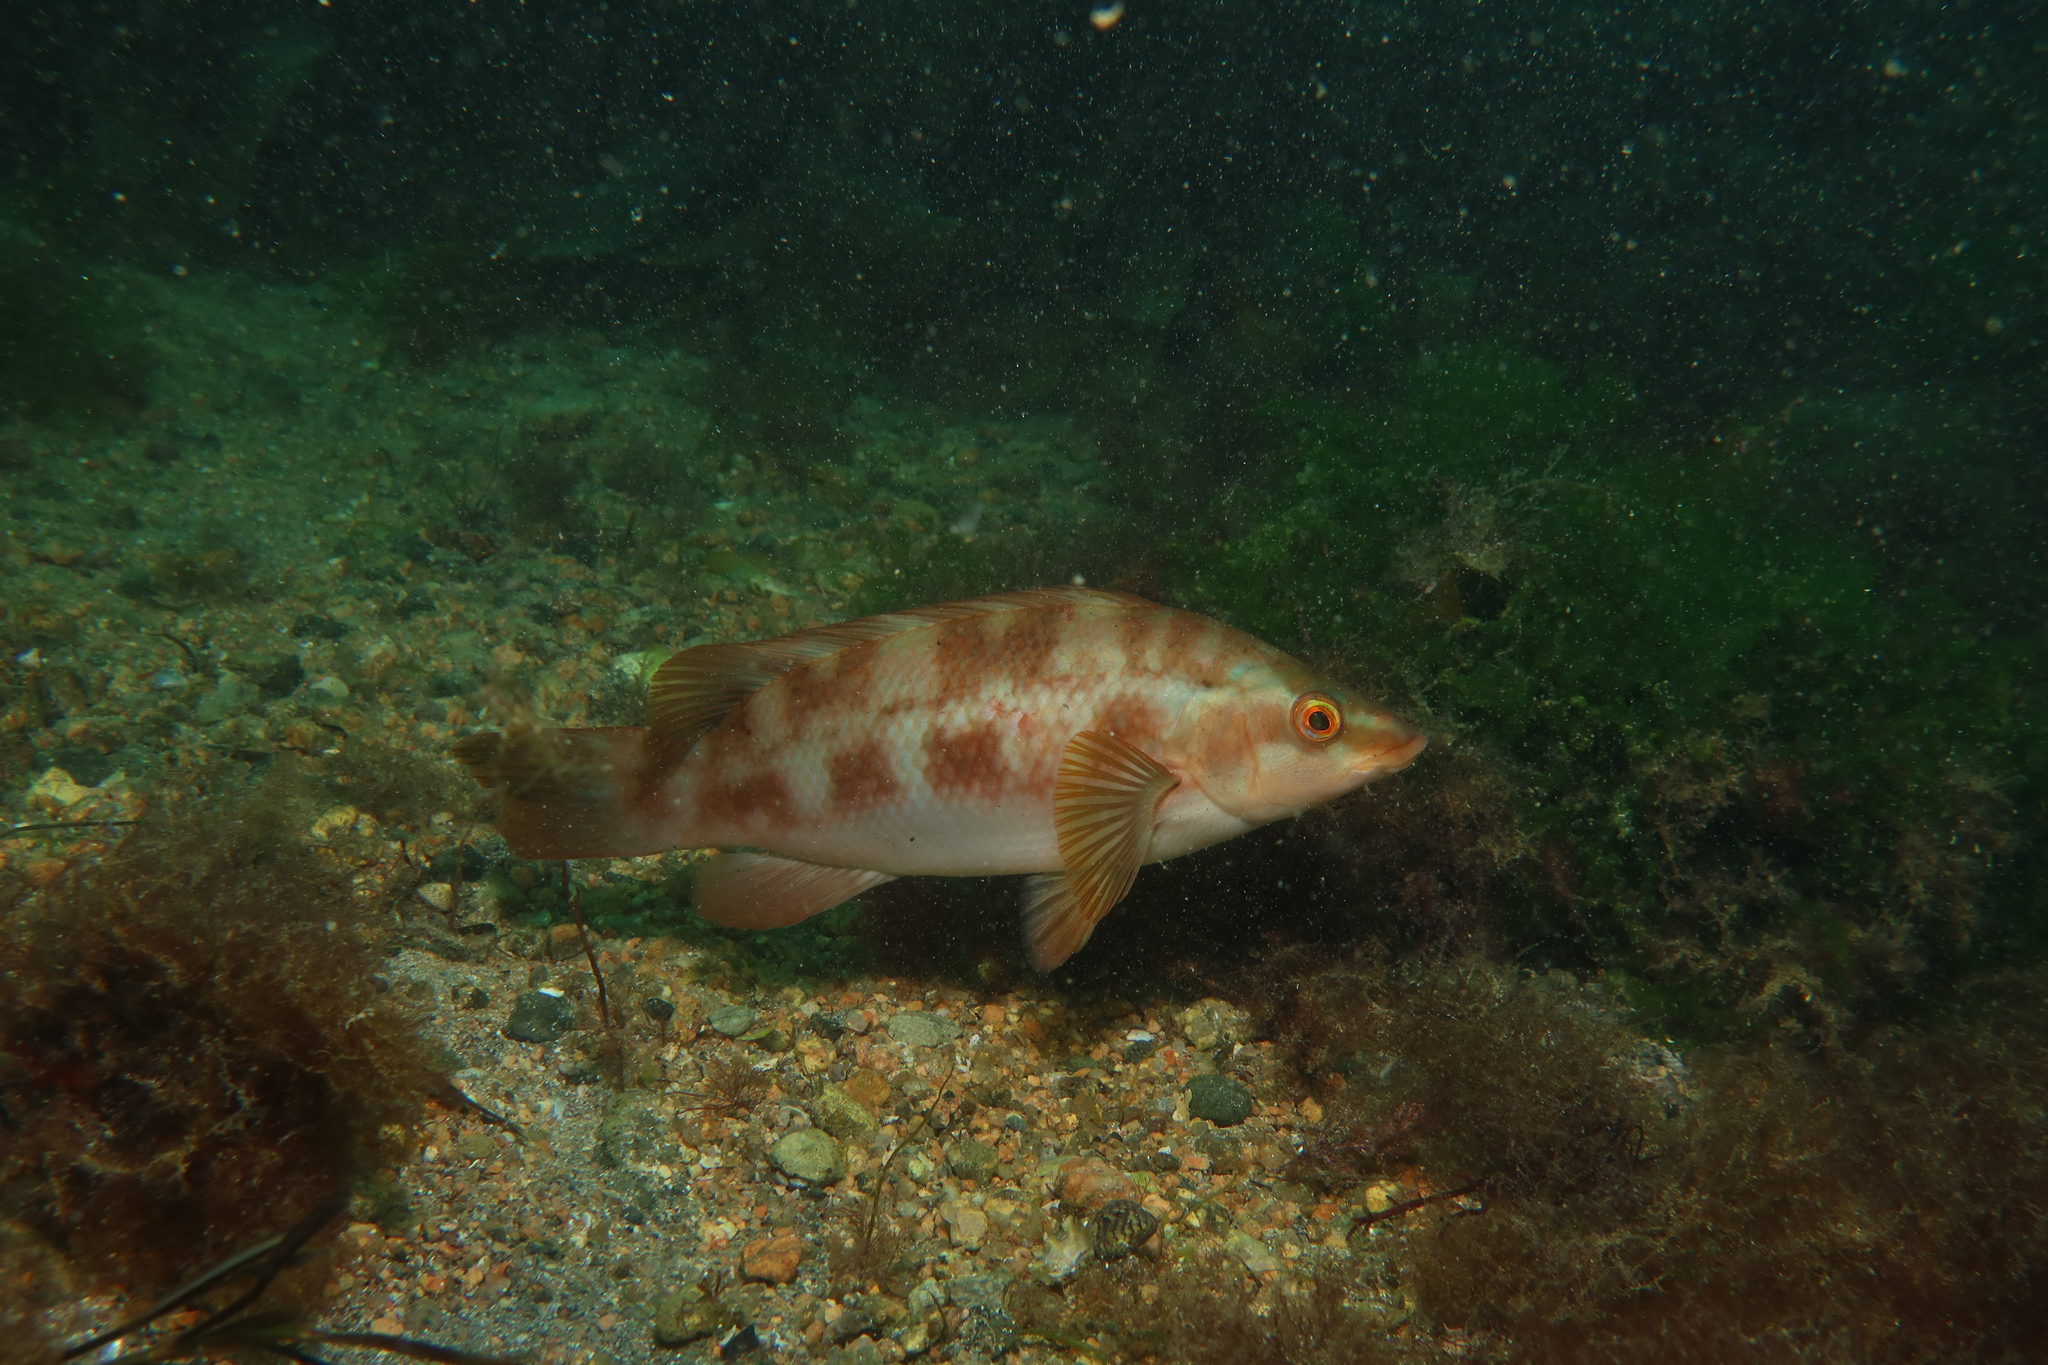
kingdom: Animalia
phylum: Chordata
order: Perciformes
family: Labridae
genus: Labrus
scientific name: Labrus bergylta
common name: Ballan wrasse
